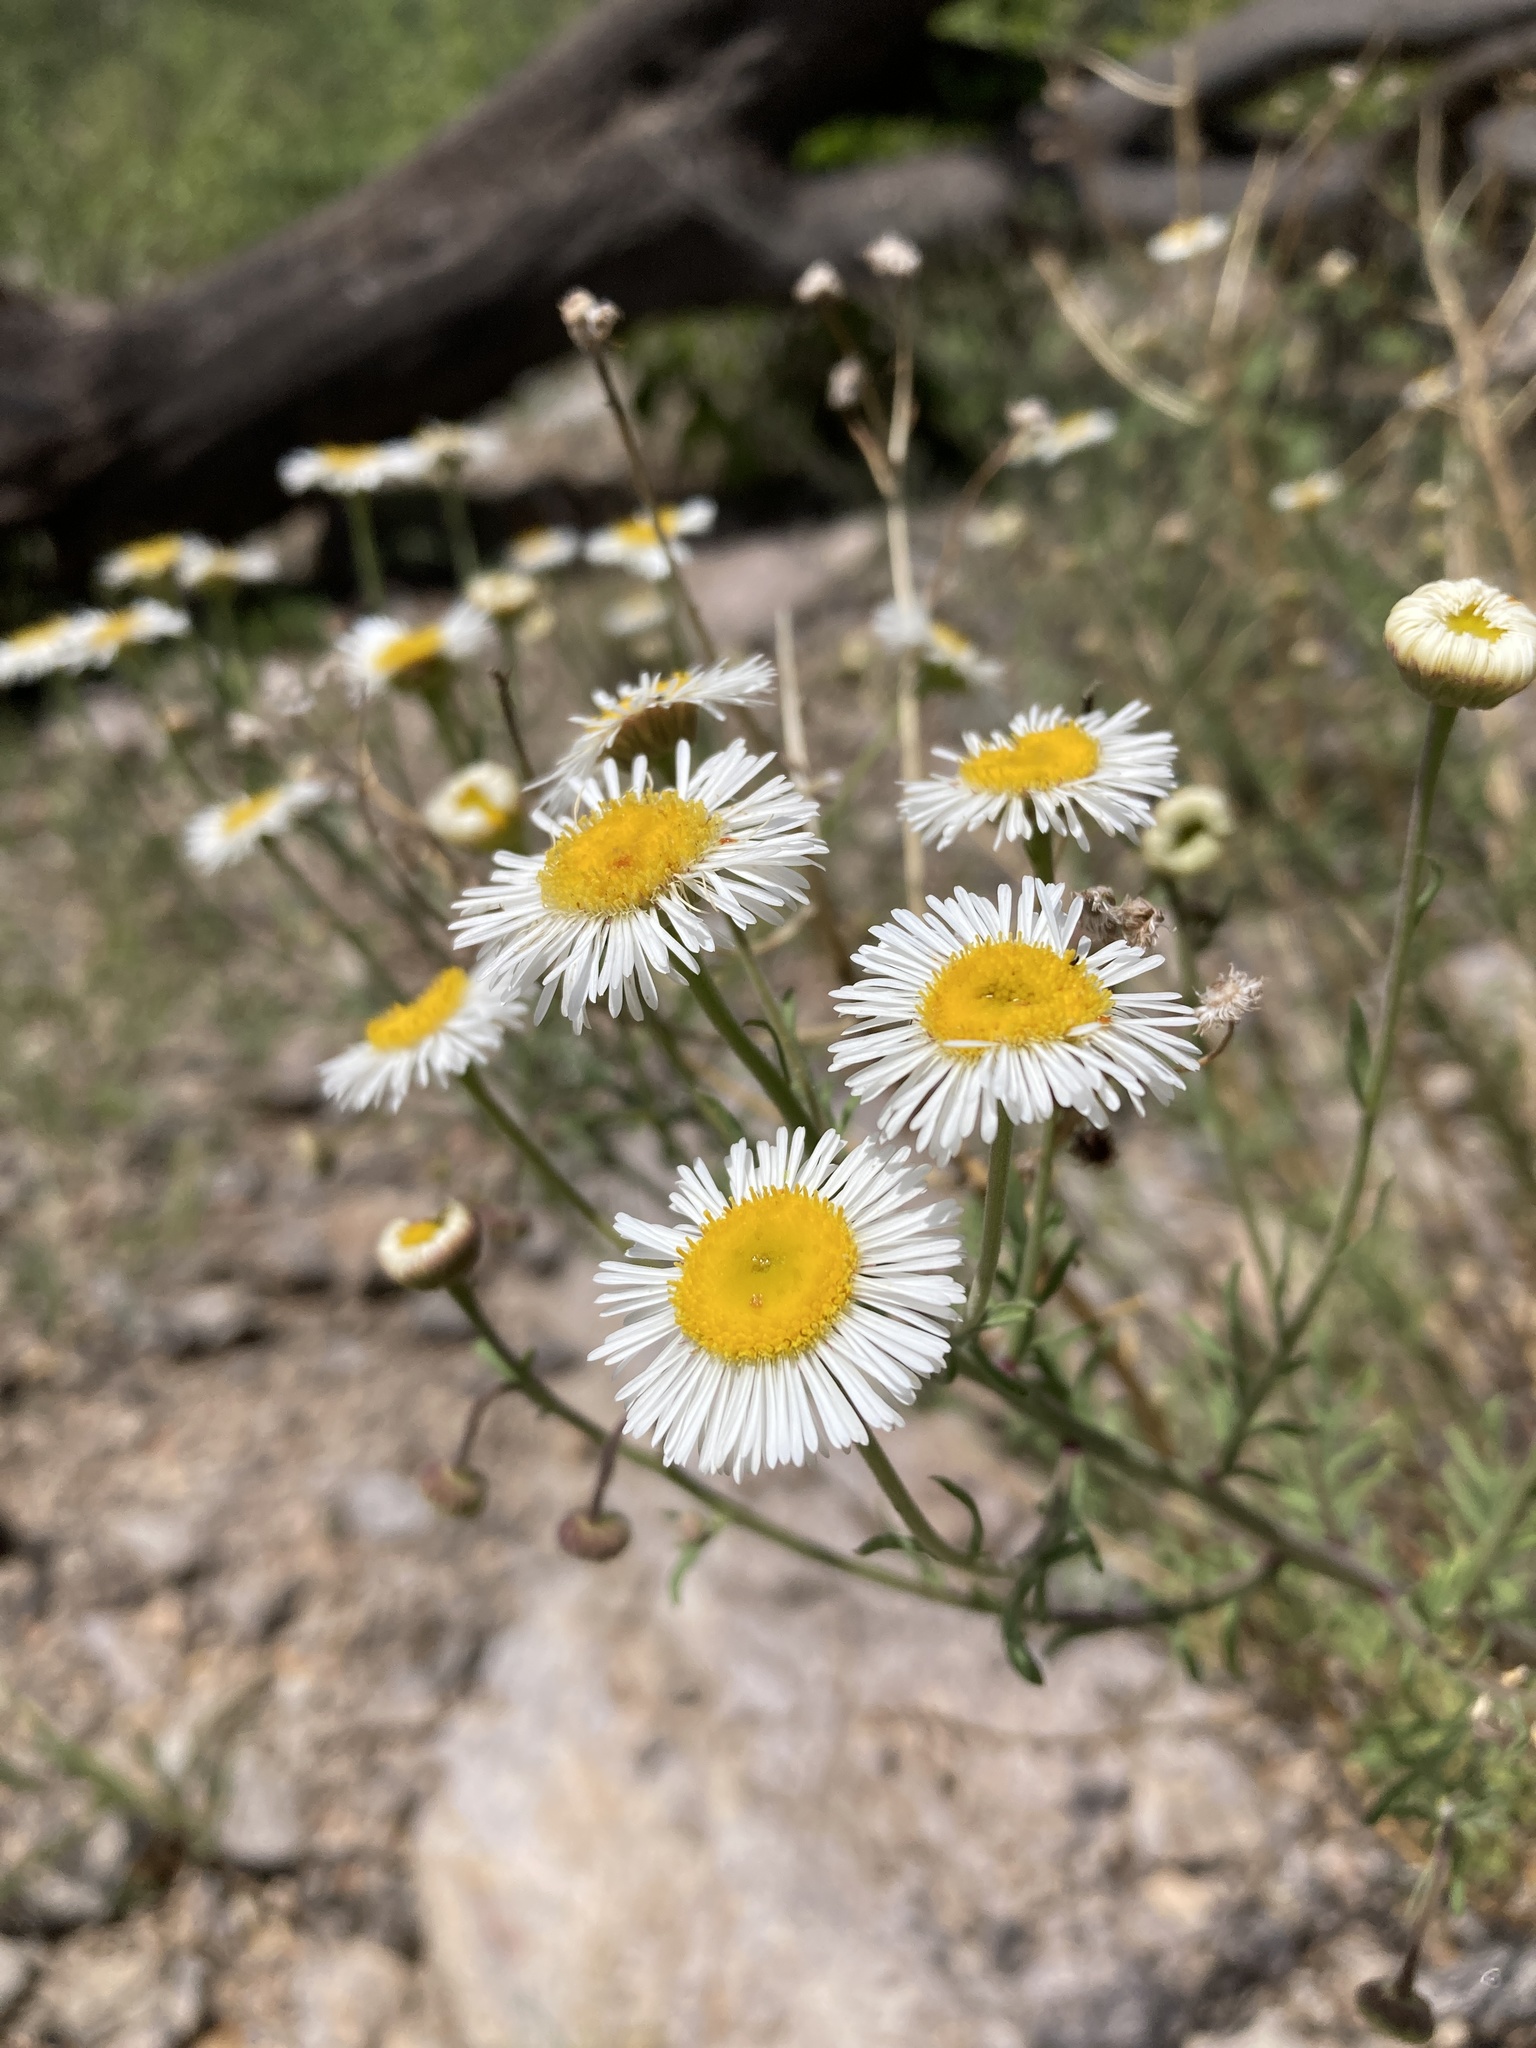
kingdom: Plantae
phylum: Tracheophyta
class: Magnoliopsida
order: Asterales
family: Asteraceae
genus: Erigeron
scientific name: Erigeron neomexicanus
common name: New mexico fleabane
